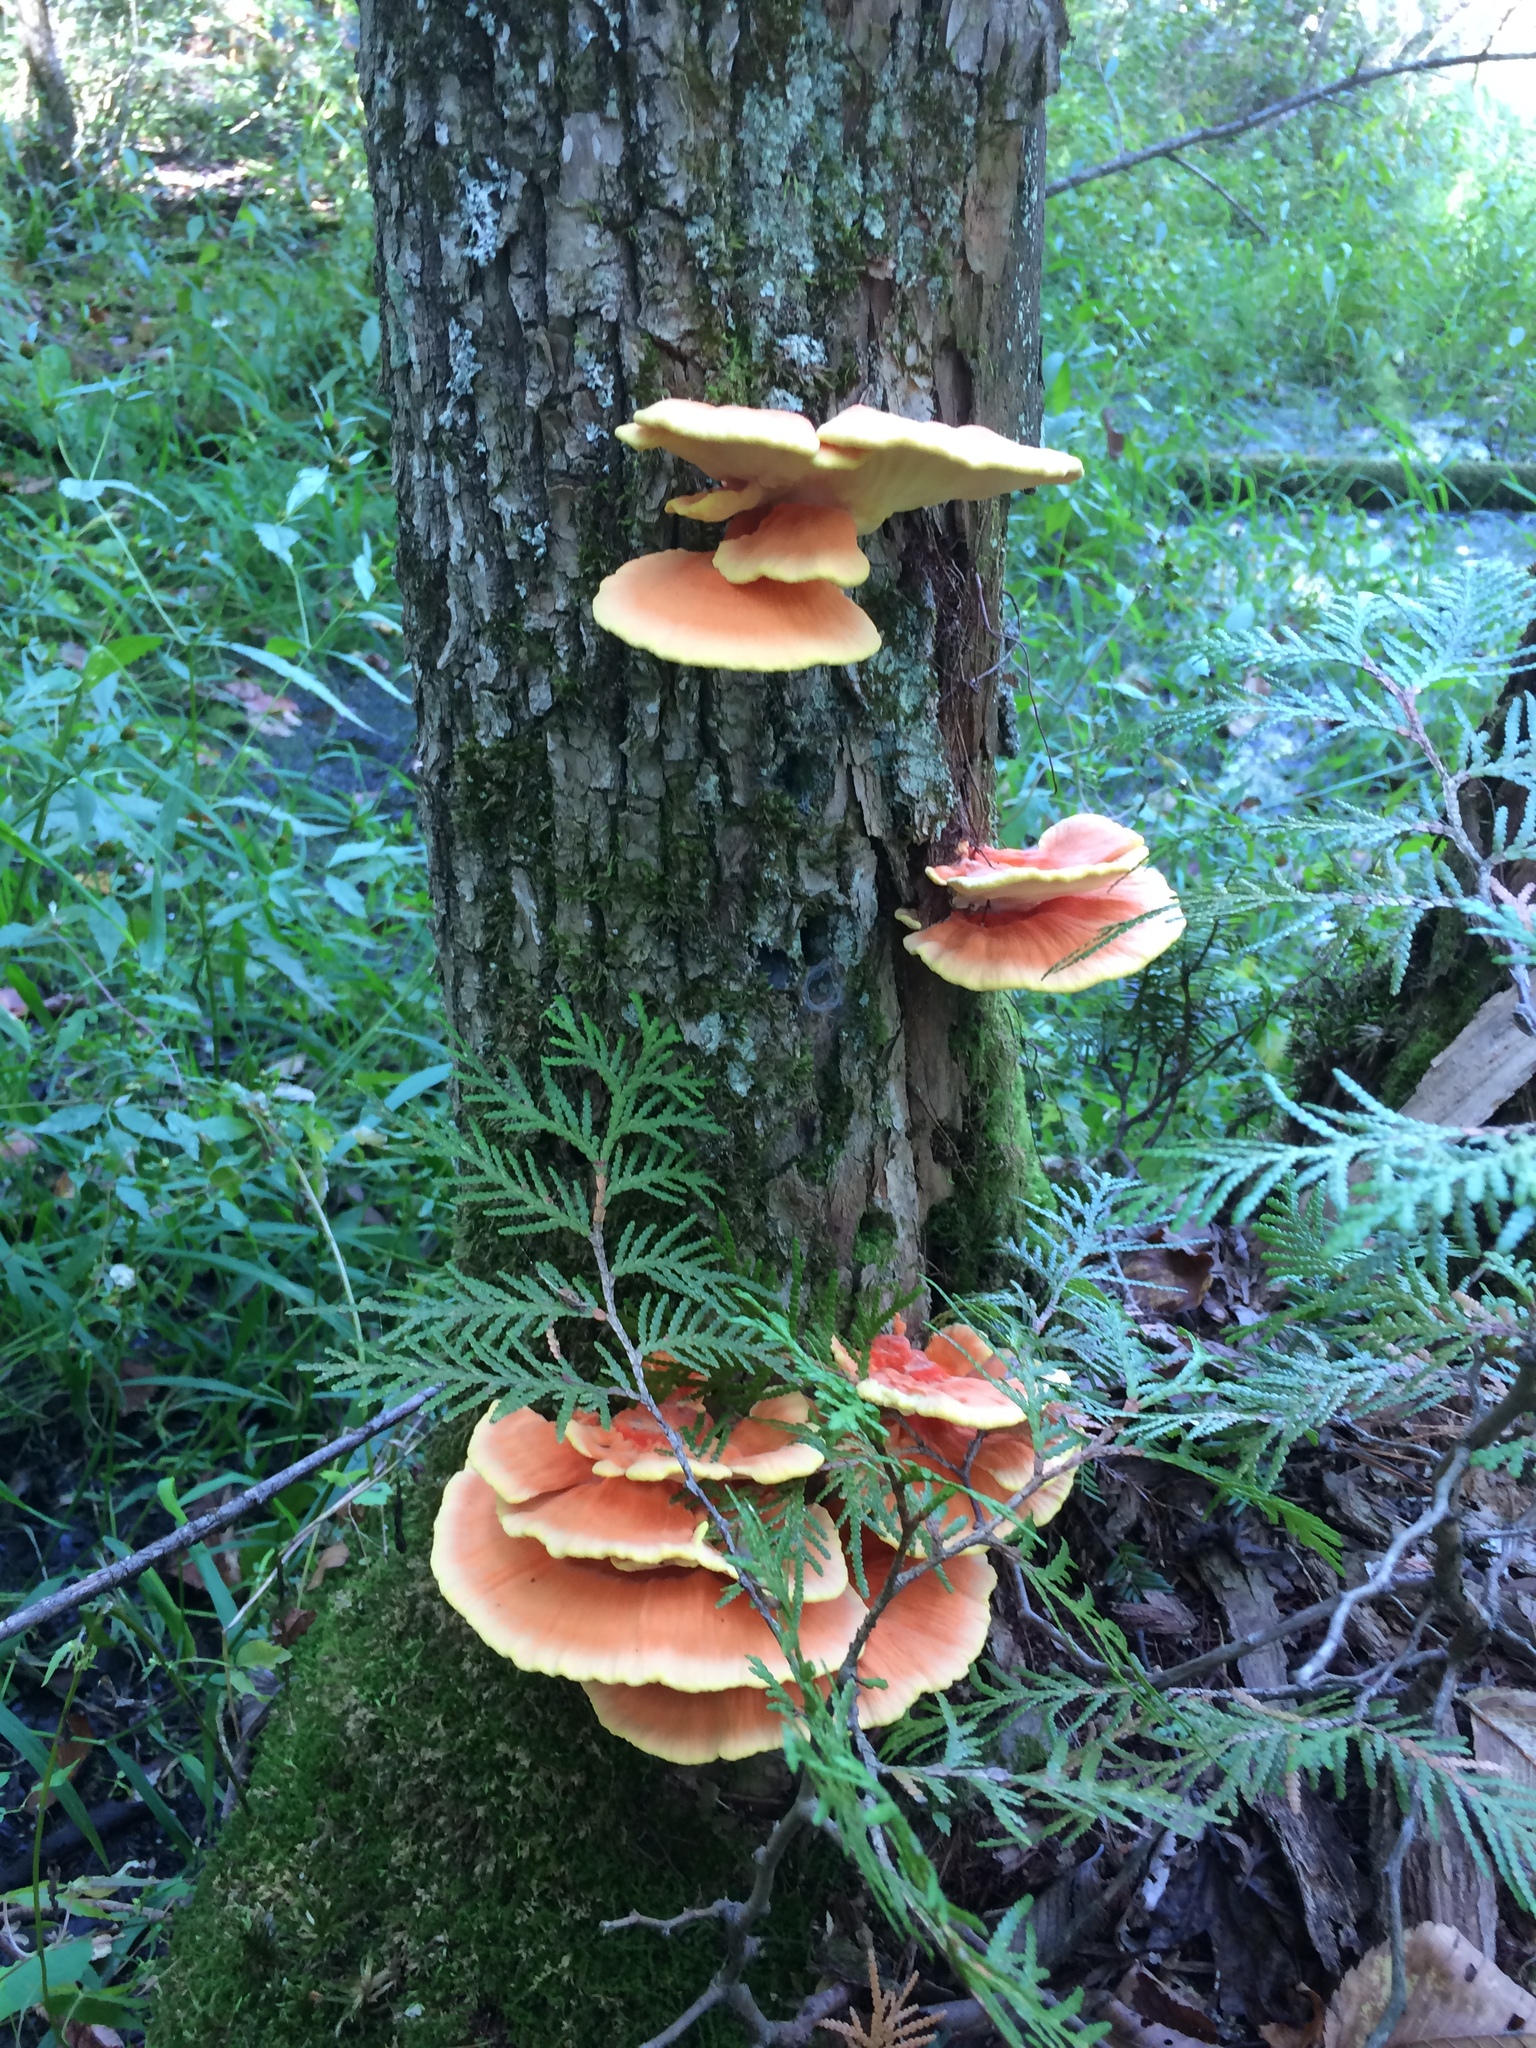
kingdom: Fungi
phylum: Basidiomycota
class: Agaricomycetes
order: Polyporales
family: Laetiporaceae
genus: Laetiporus
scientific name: Laetiporus sulphureus
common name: Chicken of the woods
